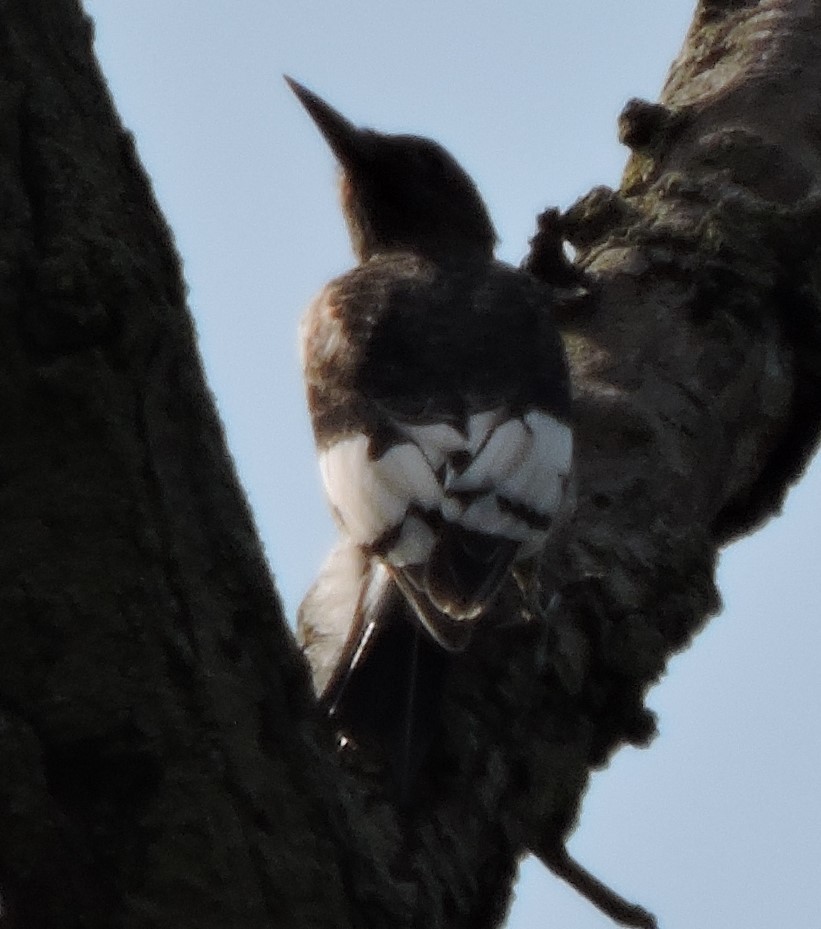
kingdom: Animalia
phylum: Chordata
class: Aves
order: Piciformes
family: Picidae
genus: Melanerpes
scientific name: Melanerpes erythrocephalus
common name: Red-headed woodpecker
